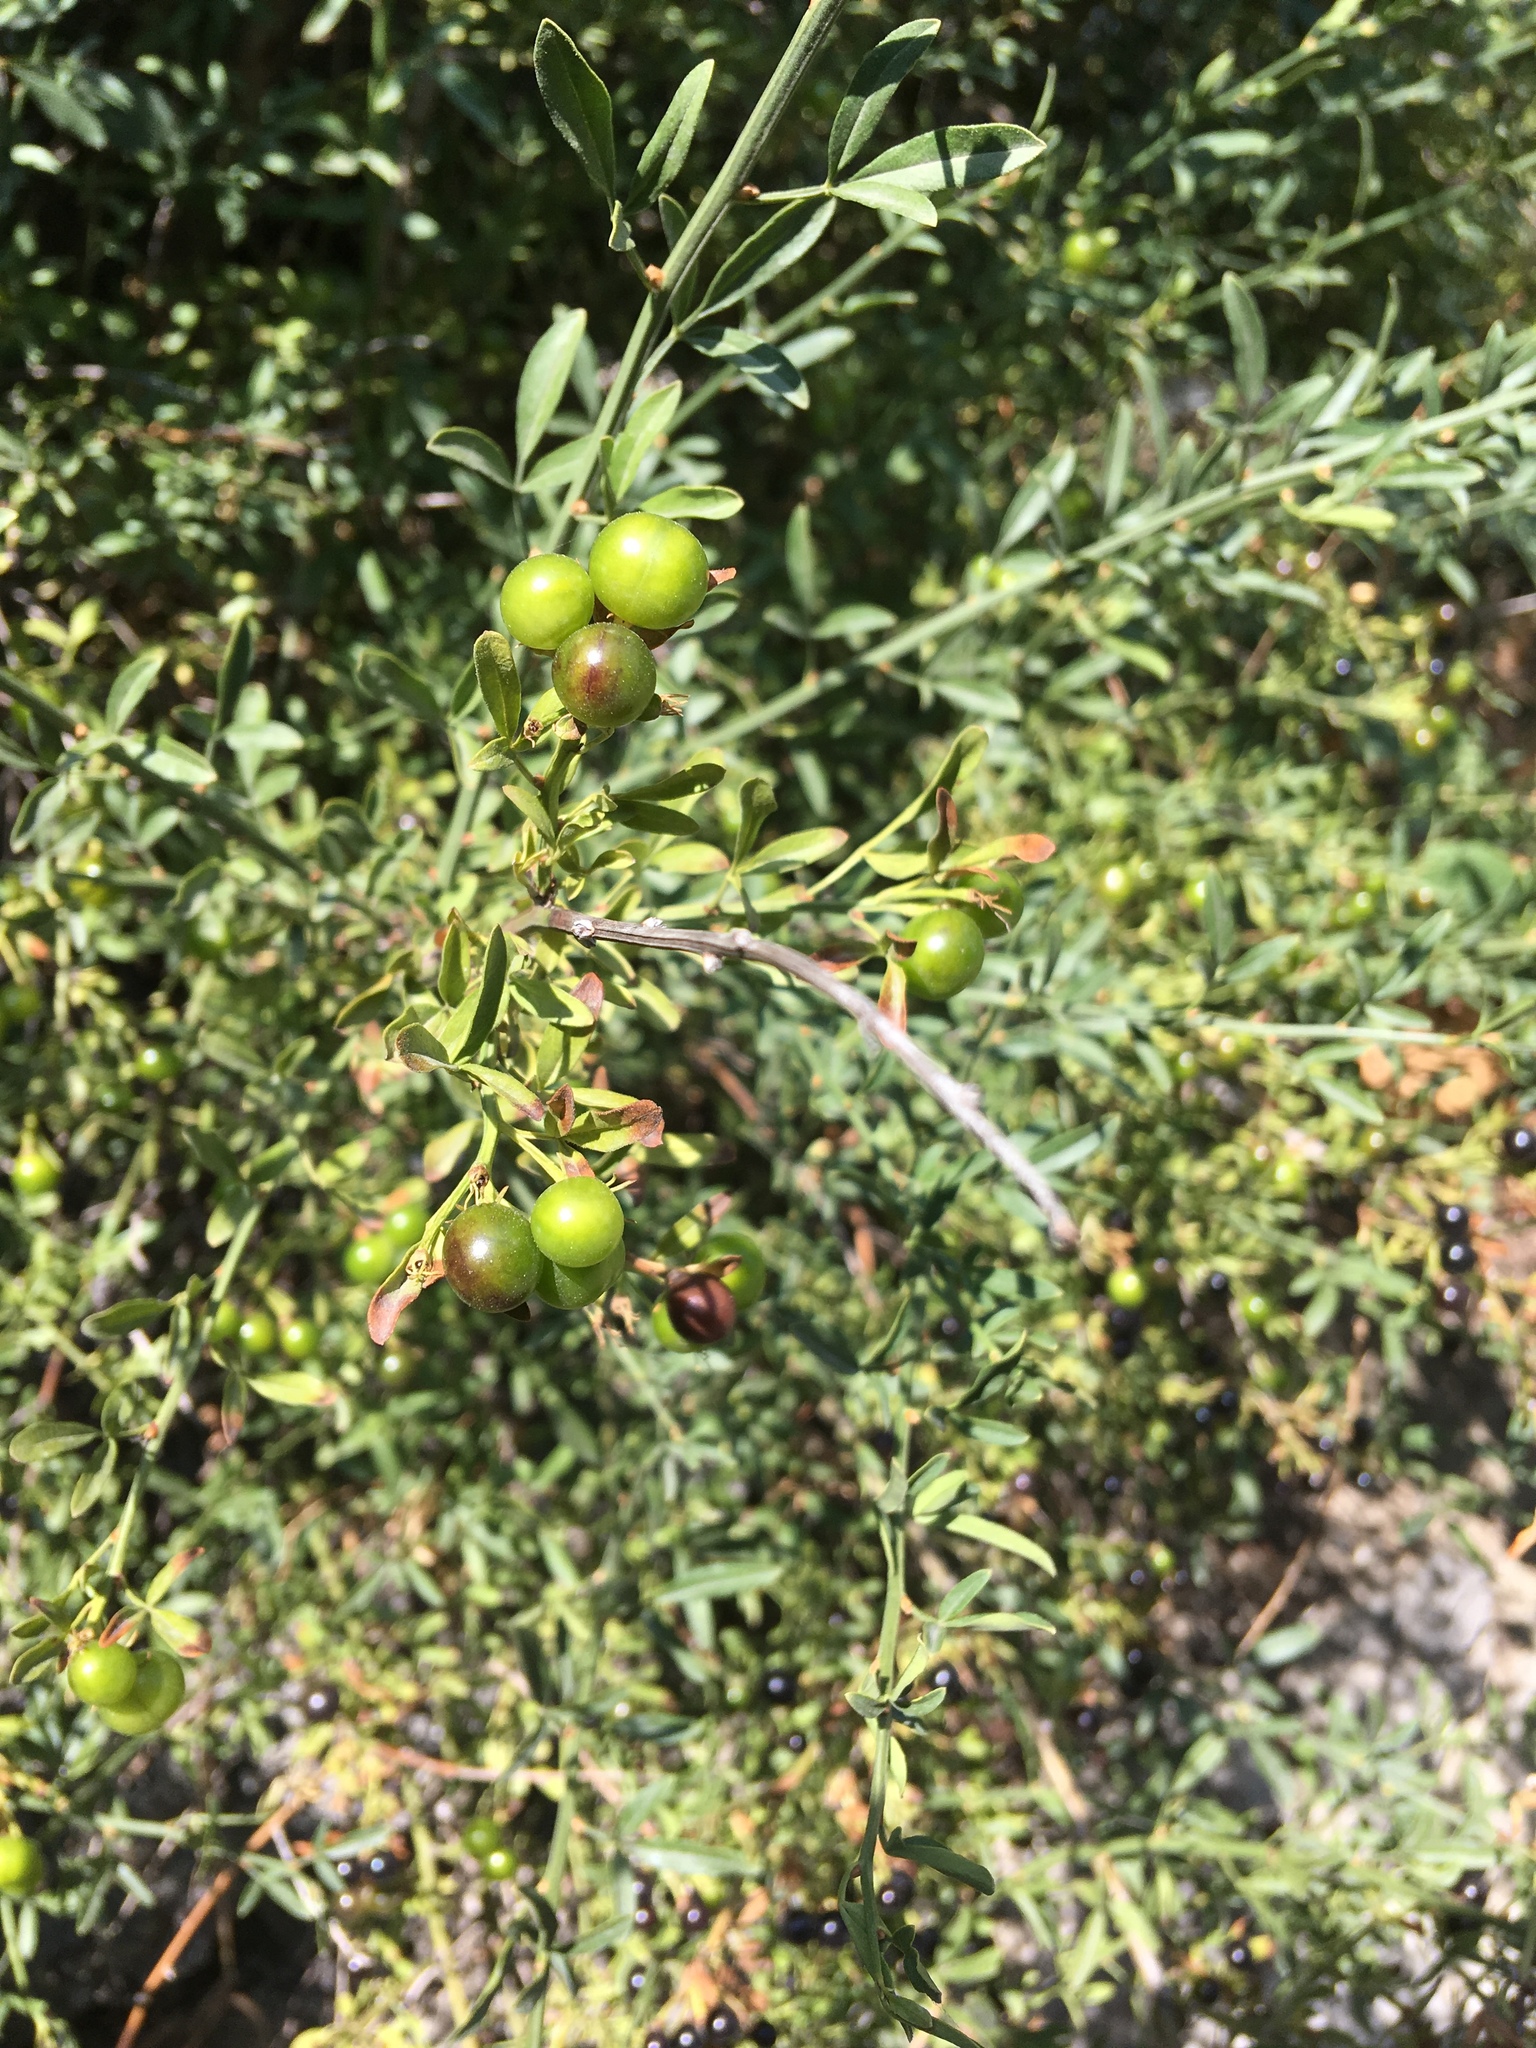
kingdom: Plantae
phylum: Tracheophyta
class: Magnoliopsida
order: Lamiales
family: Oleaceae
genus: Chrysojasminum
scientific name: Chrysojasminum fruticans
